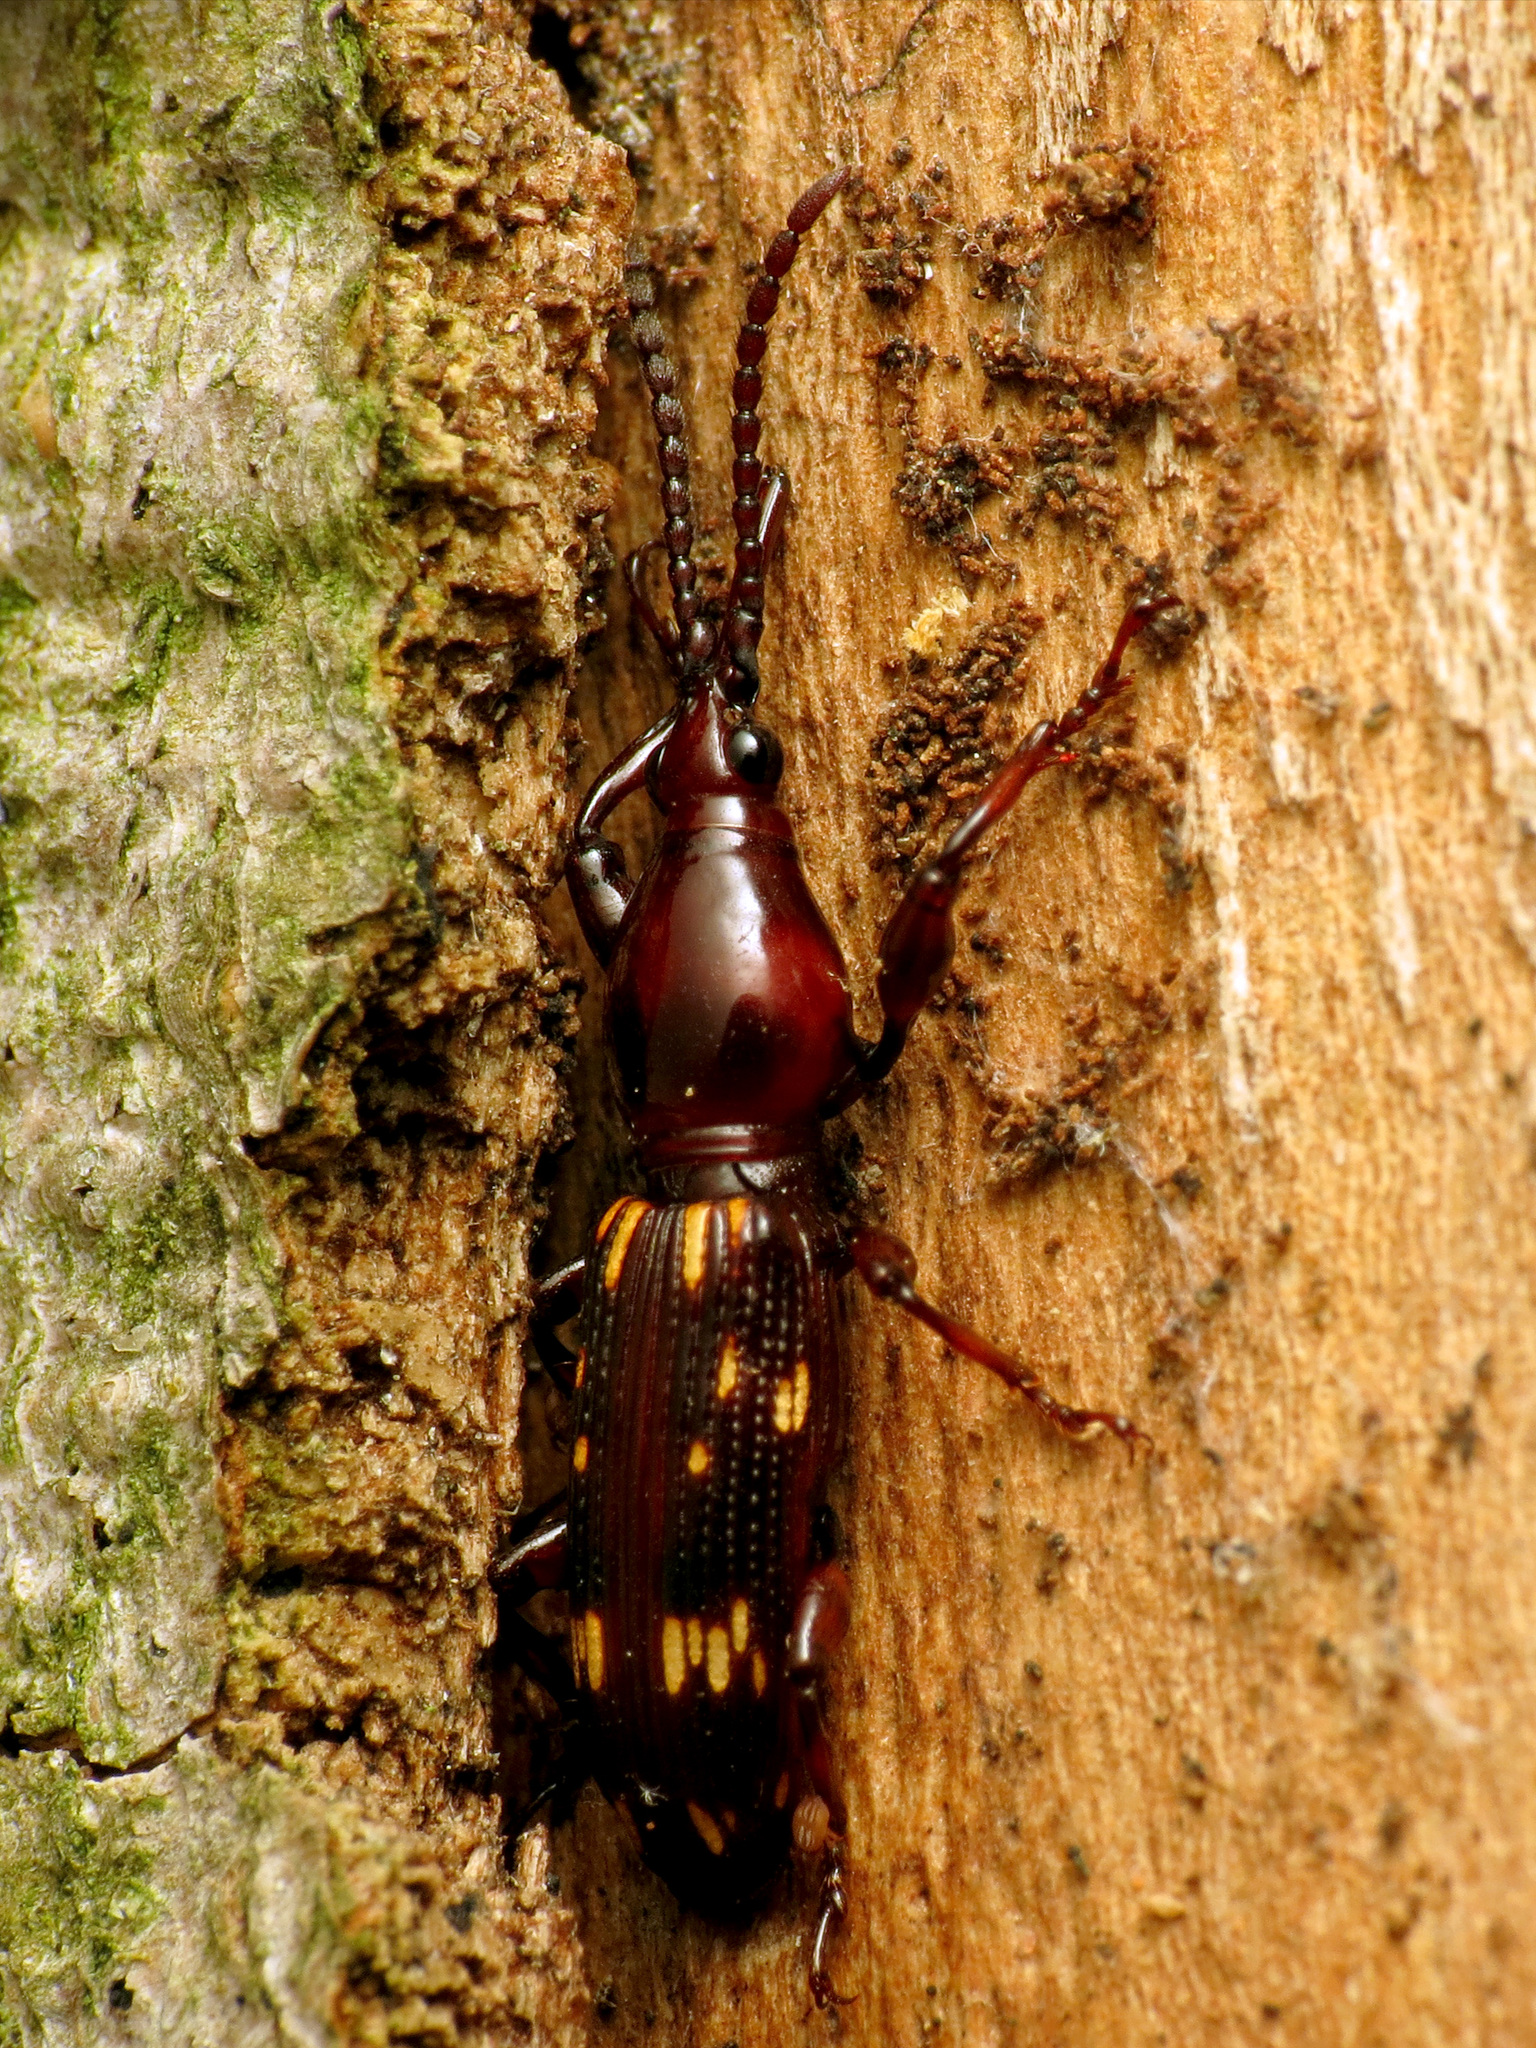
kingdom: Animalia
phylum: Arthropoda
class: Insecta
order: Coleoptera
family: Brentidae
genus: Arrenodes
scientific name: Arrenodes minutus
